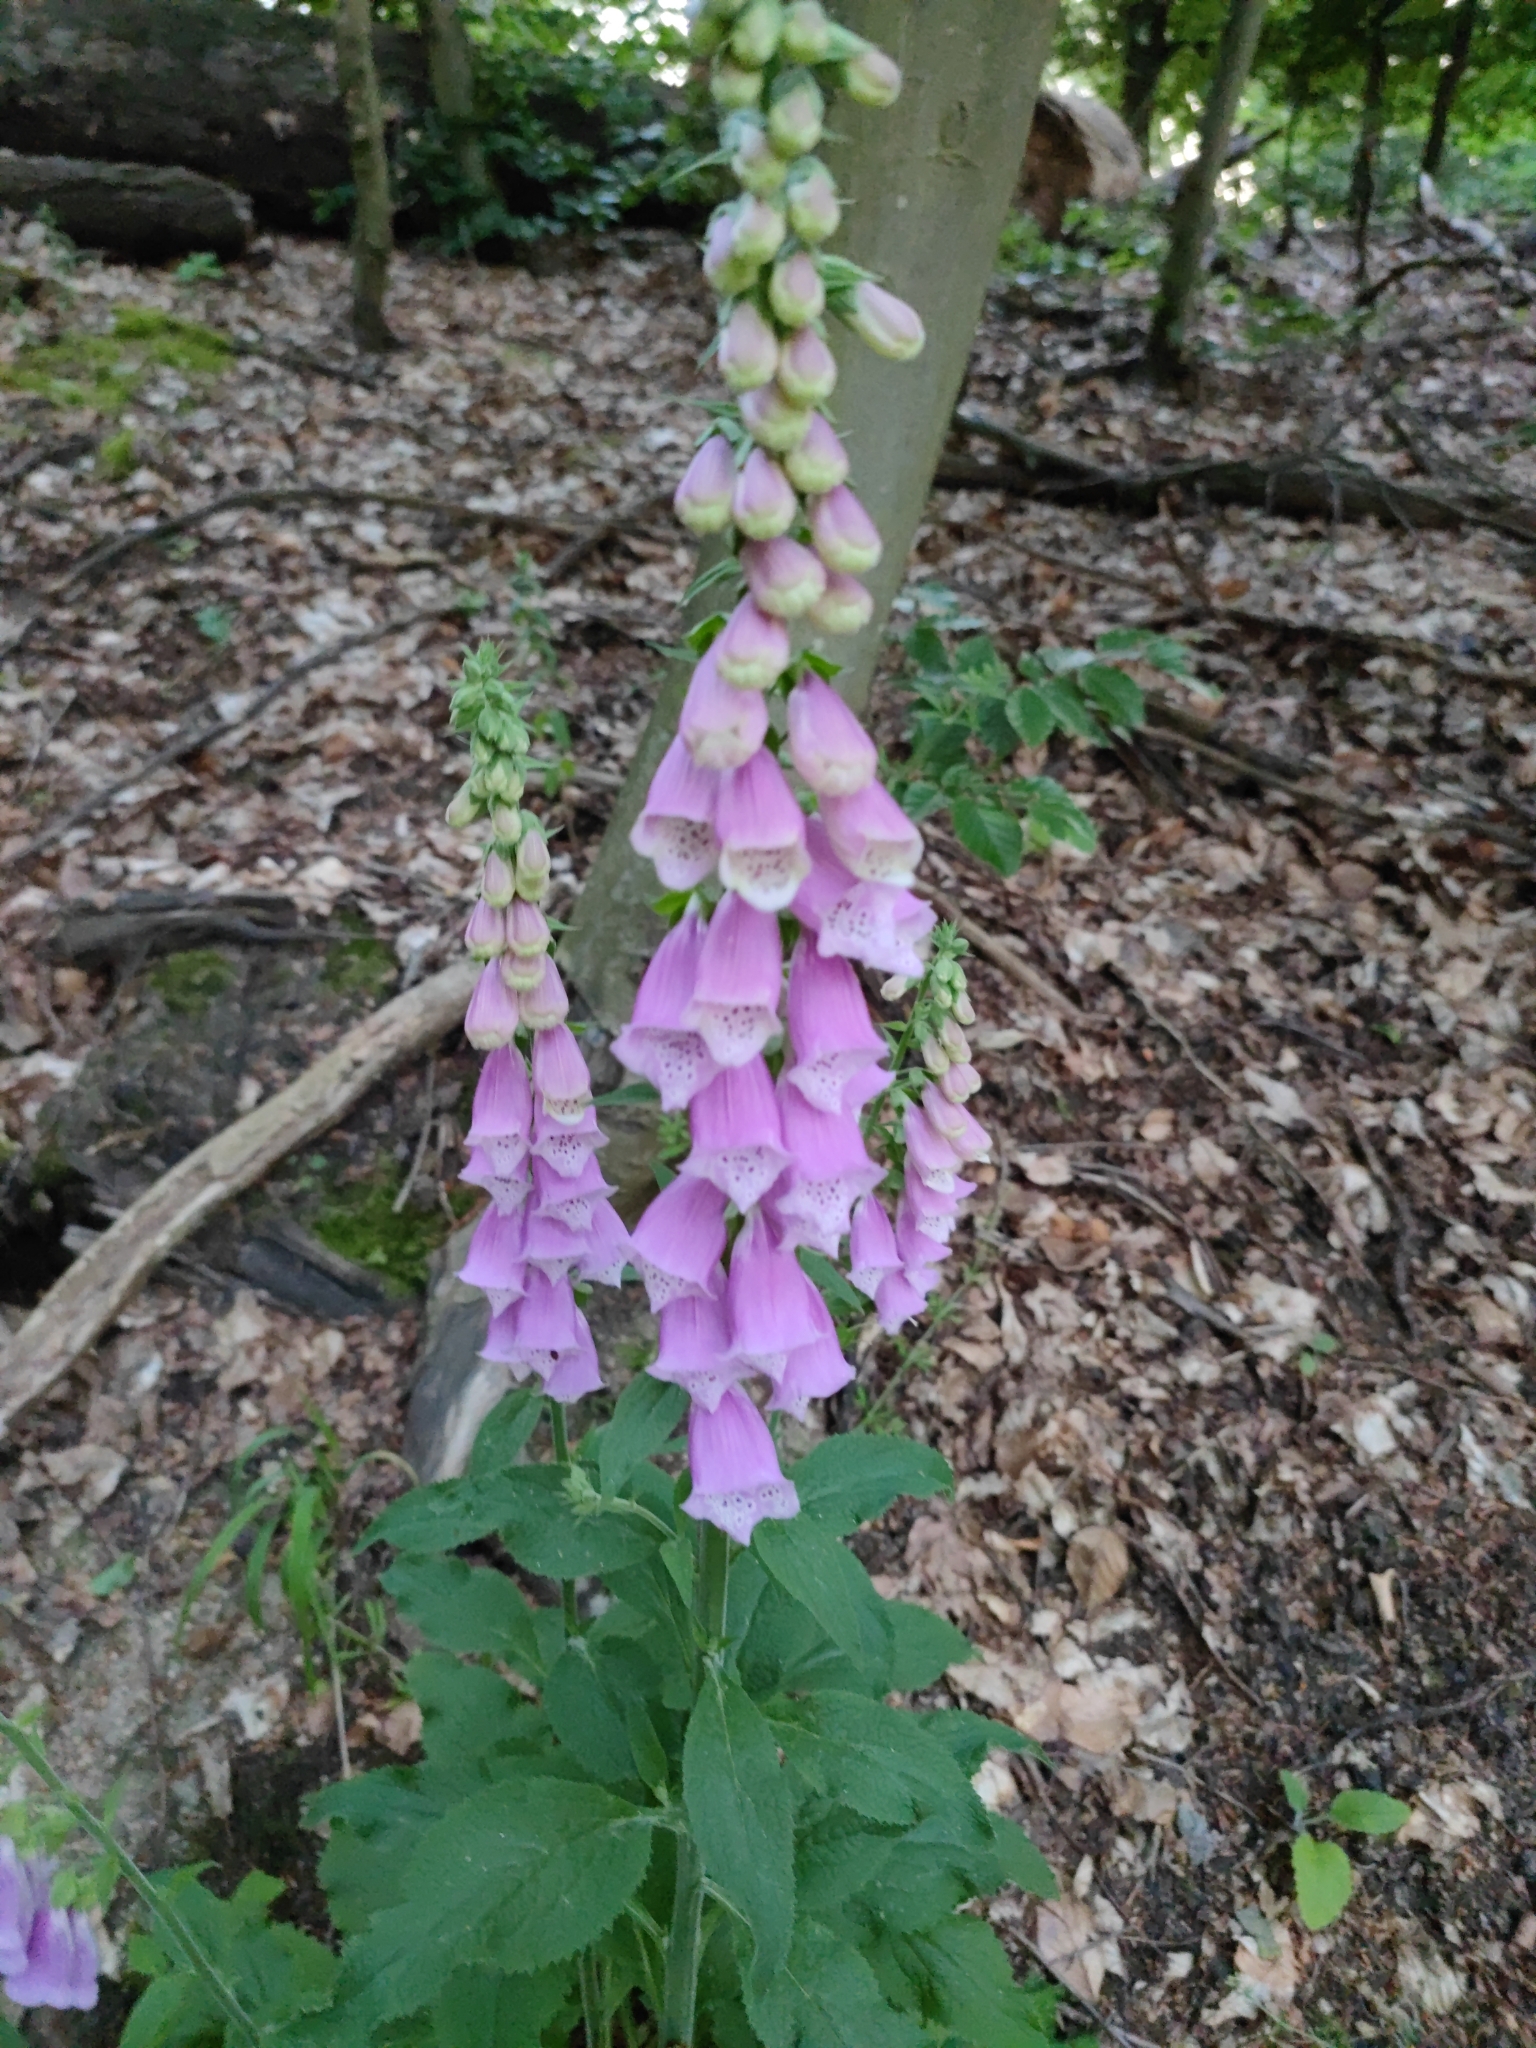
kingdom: Plantae
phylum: Tracheophyta
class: Magnoliopsida
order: Lamiales
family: Plantaginaceae
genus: Digitalis
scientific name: Digitalis purpurea
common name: Foxglove
